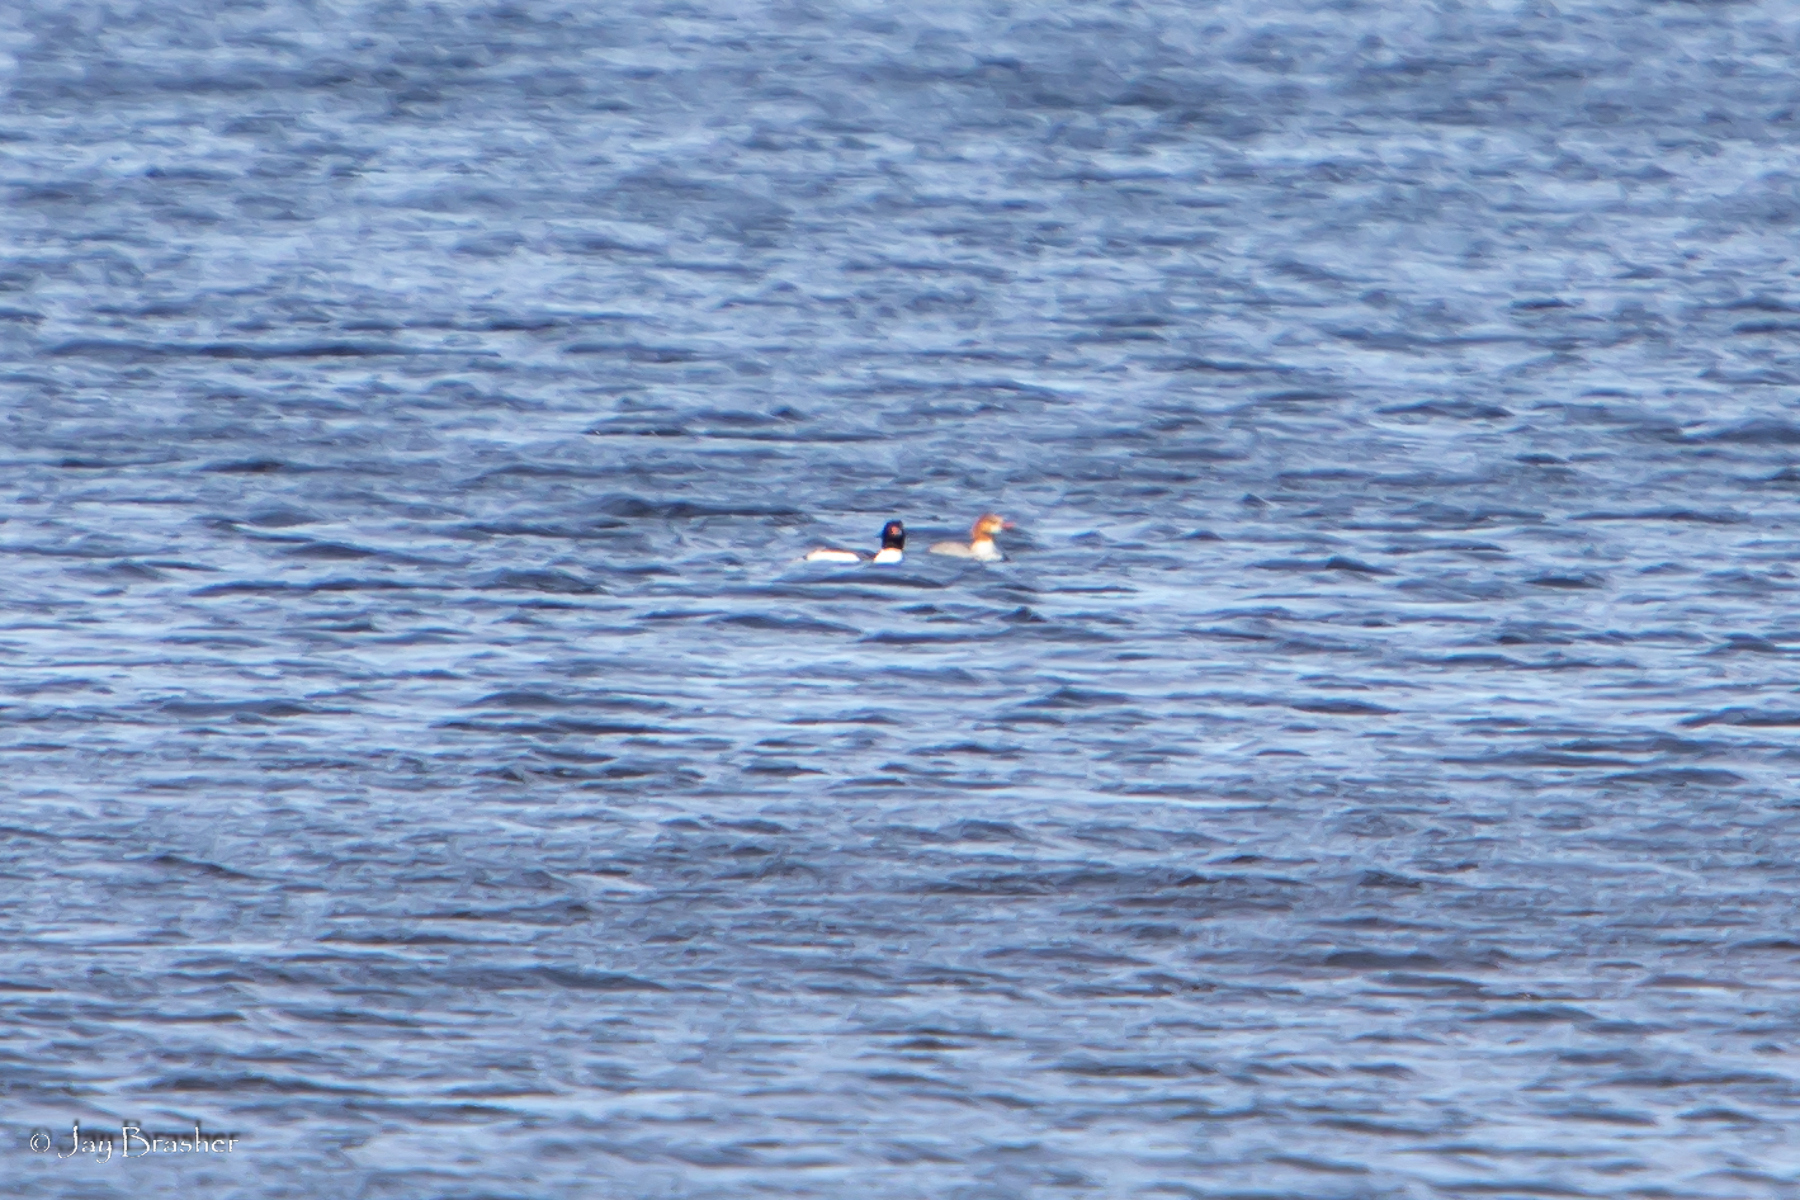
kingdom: Animalia
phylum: Chordata
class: Aves
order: Anseriformes
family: Anatidae
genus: Mergus
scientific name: Mergus merganser
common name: Common merganser
